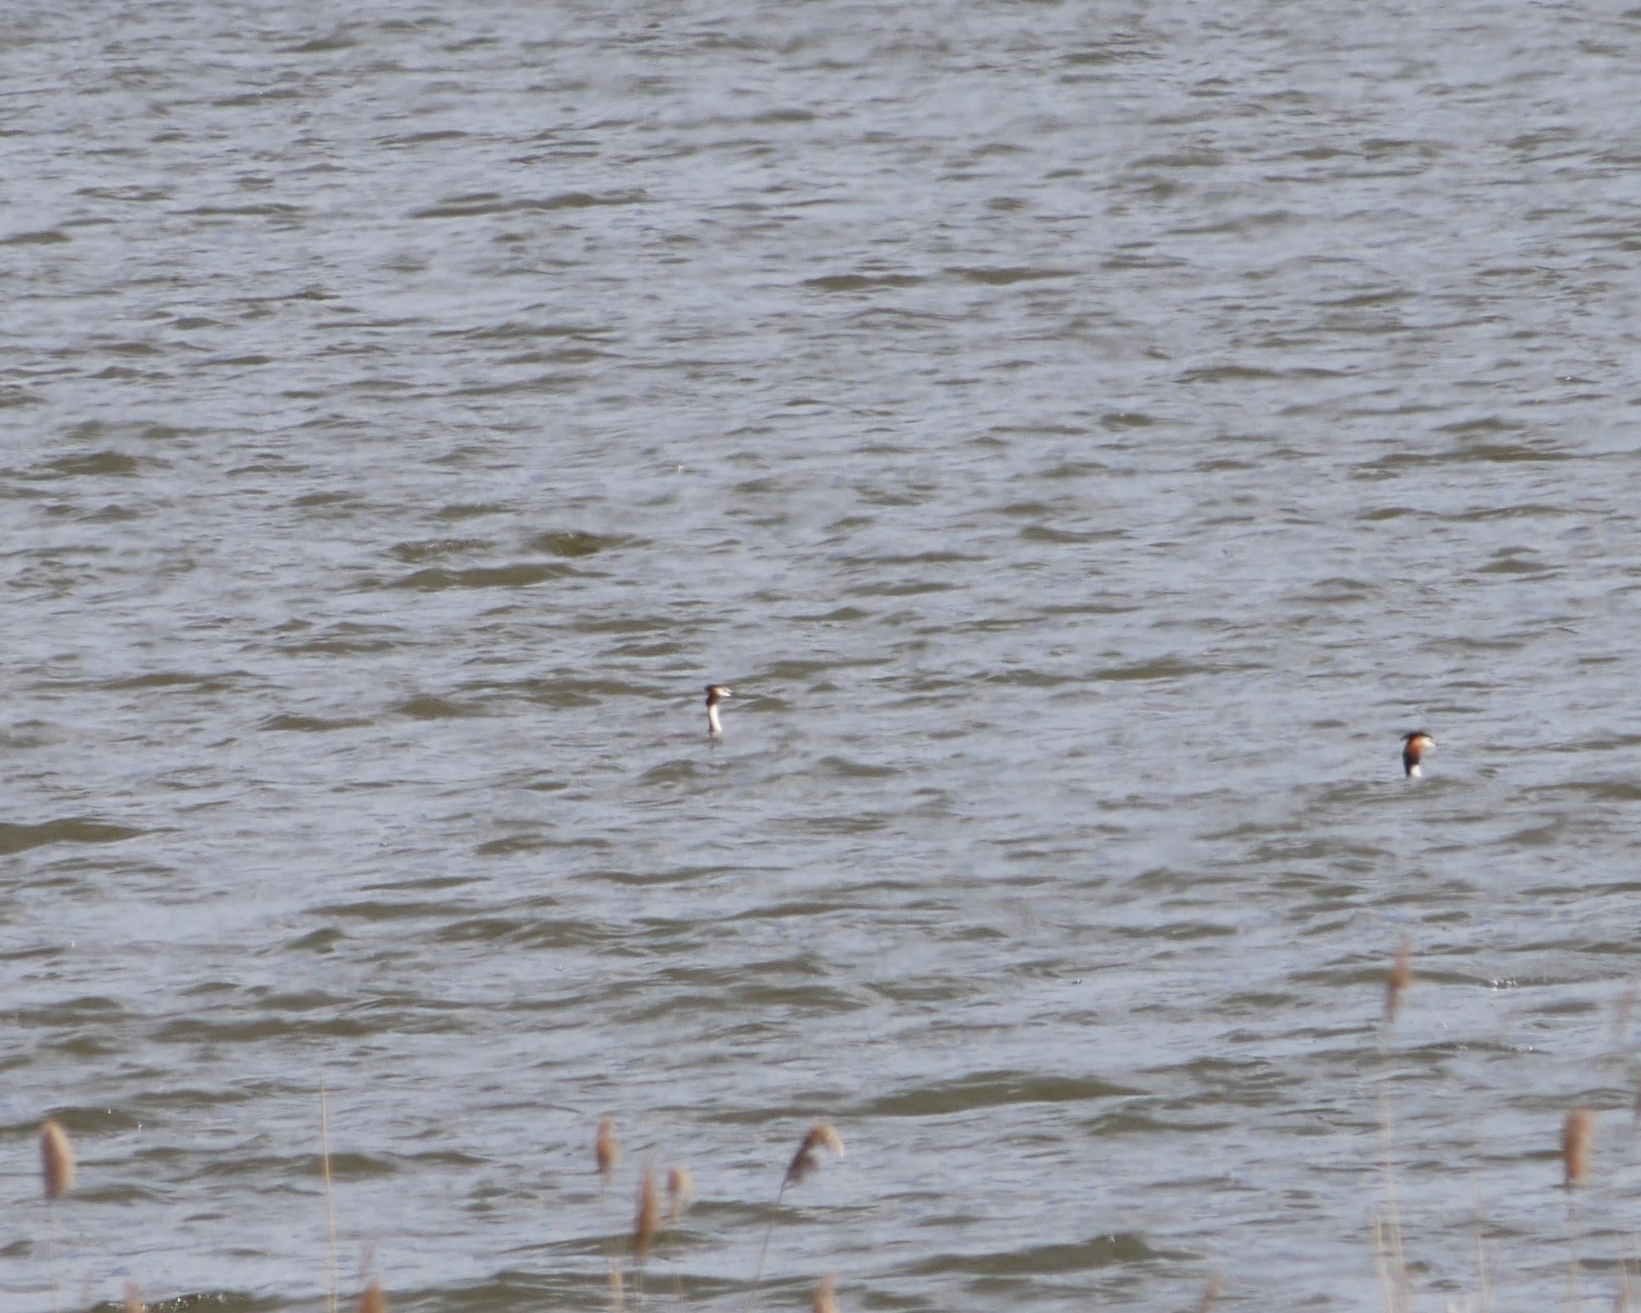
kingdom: Animalia
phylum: Chordata
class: Aves
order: Podicipediformes
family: Podicipedidae
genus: Podiceps
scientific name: Podiceps cristatus
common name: Great crested grebe
